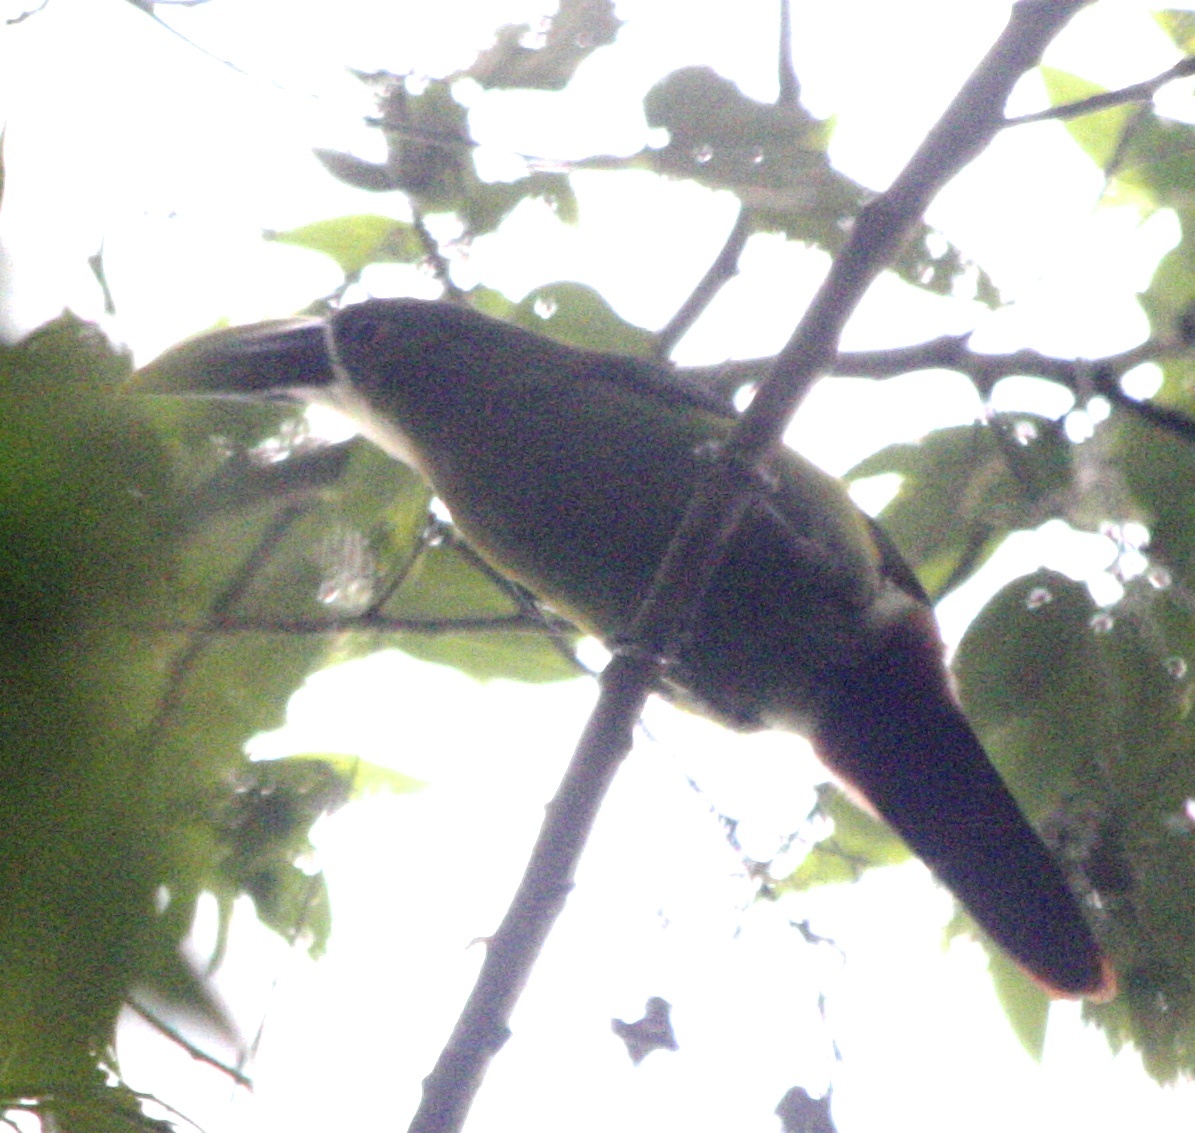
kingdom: Animalia
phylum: Chordata
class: Aves
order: Piciformes
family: Ramphastidae
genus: Aulacorhynchus
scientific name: Aulacorhynchus albivitta
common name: White-throated toucanet
